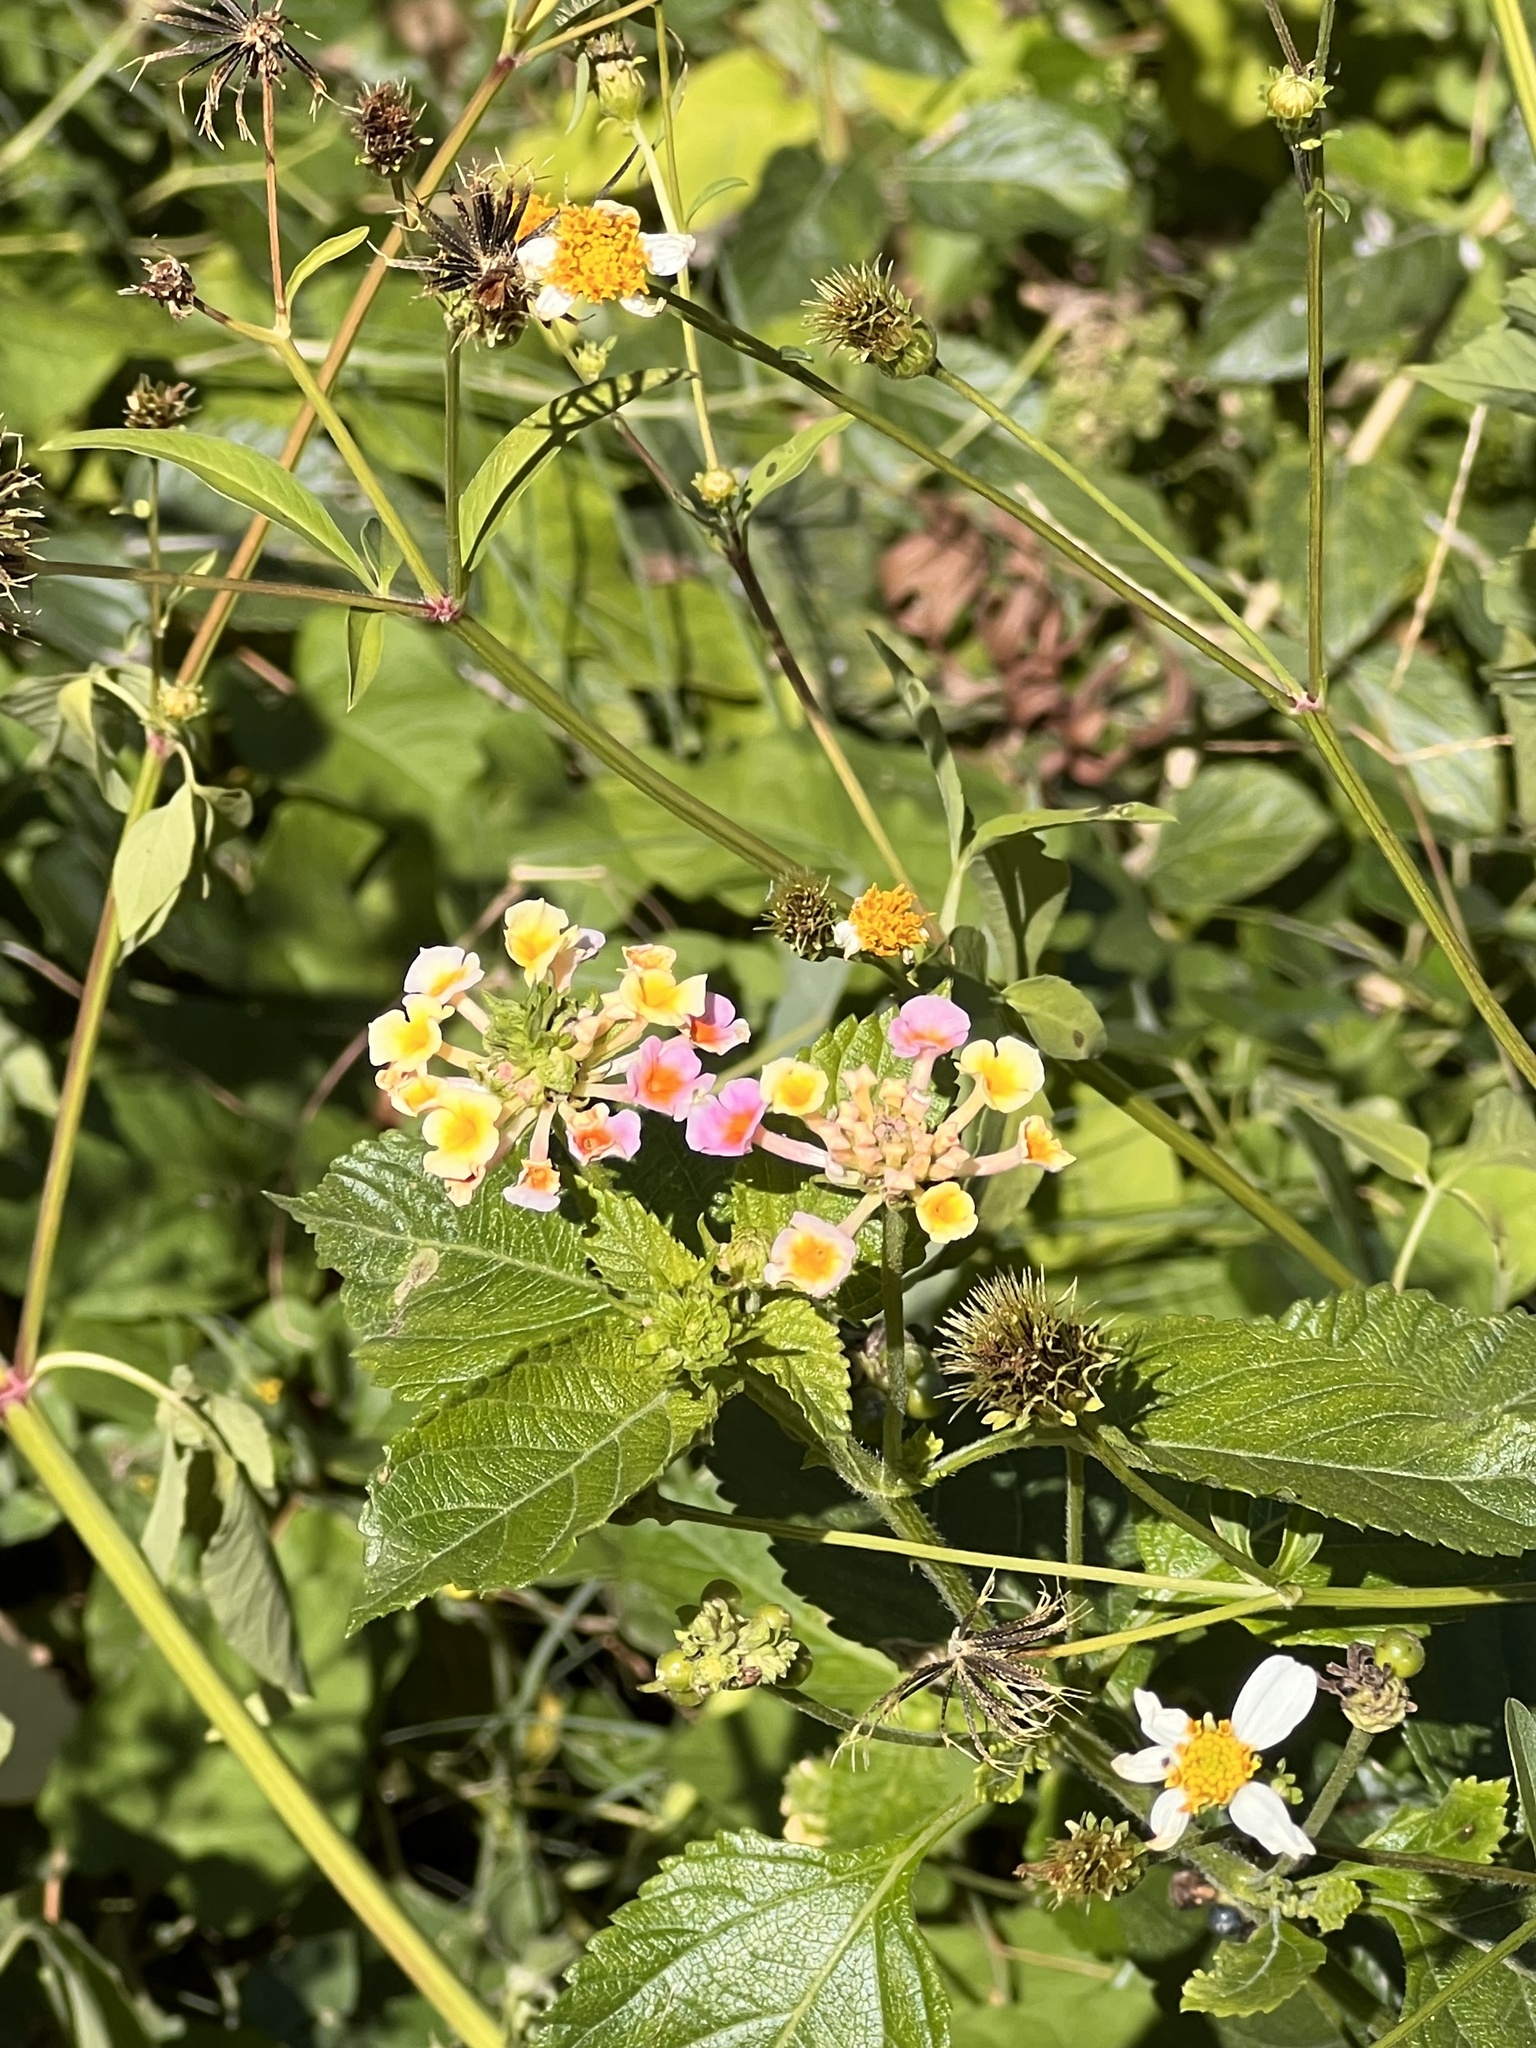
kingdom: Plantae
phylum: Tracheophyta
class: Magnoliopsida
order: Lamiales
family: Verbenaceae
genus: Lantana
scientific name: Lantana strigocamara
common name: Lantana
